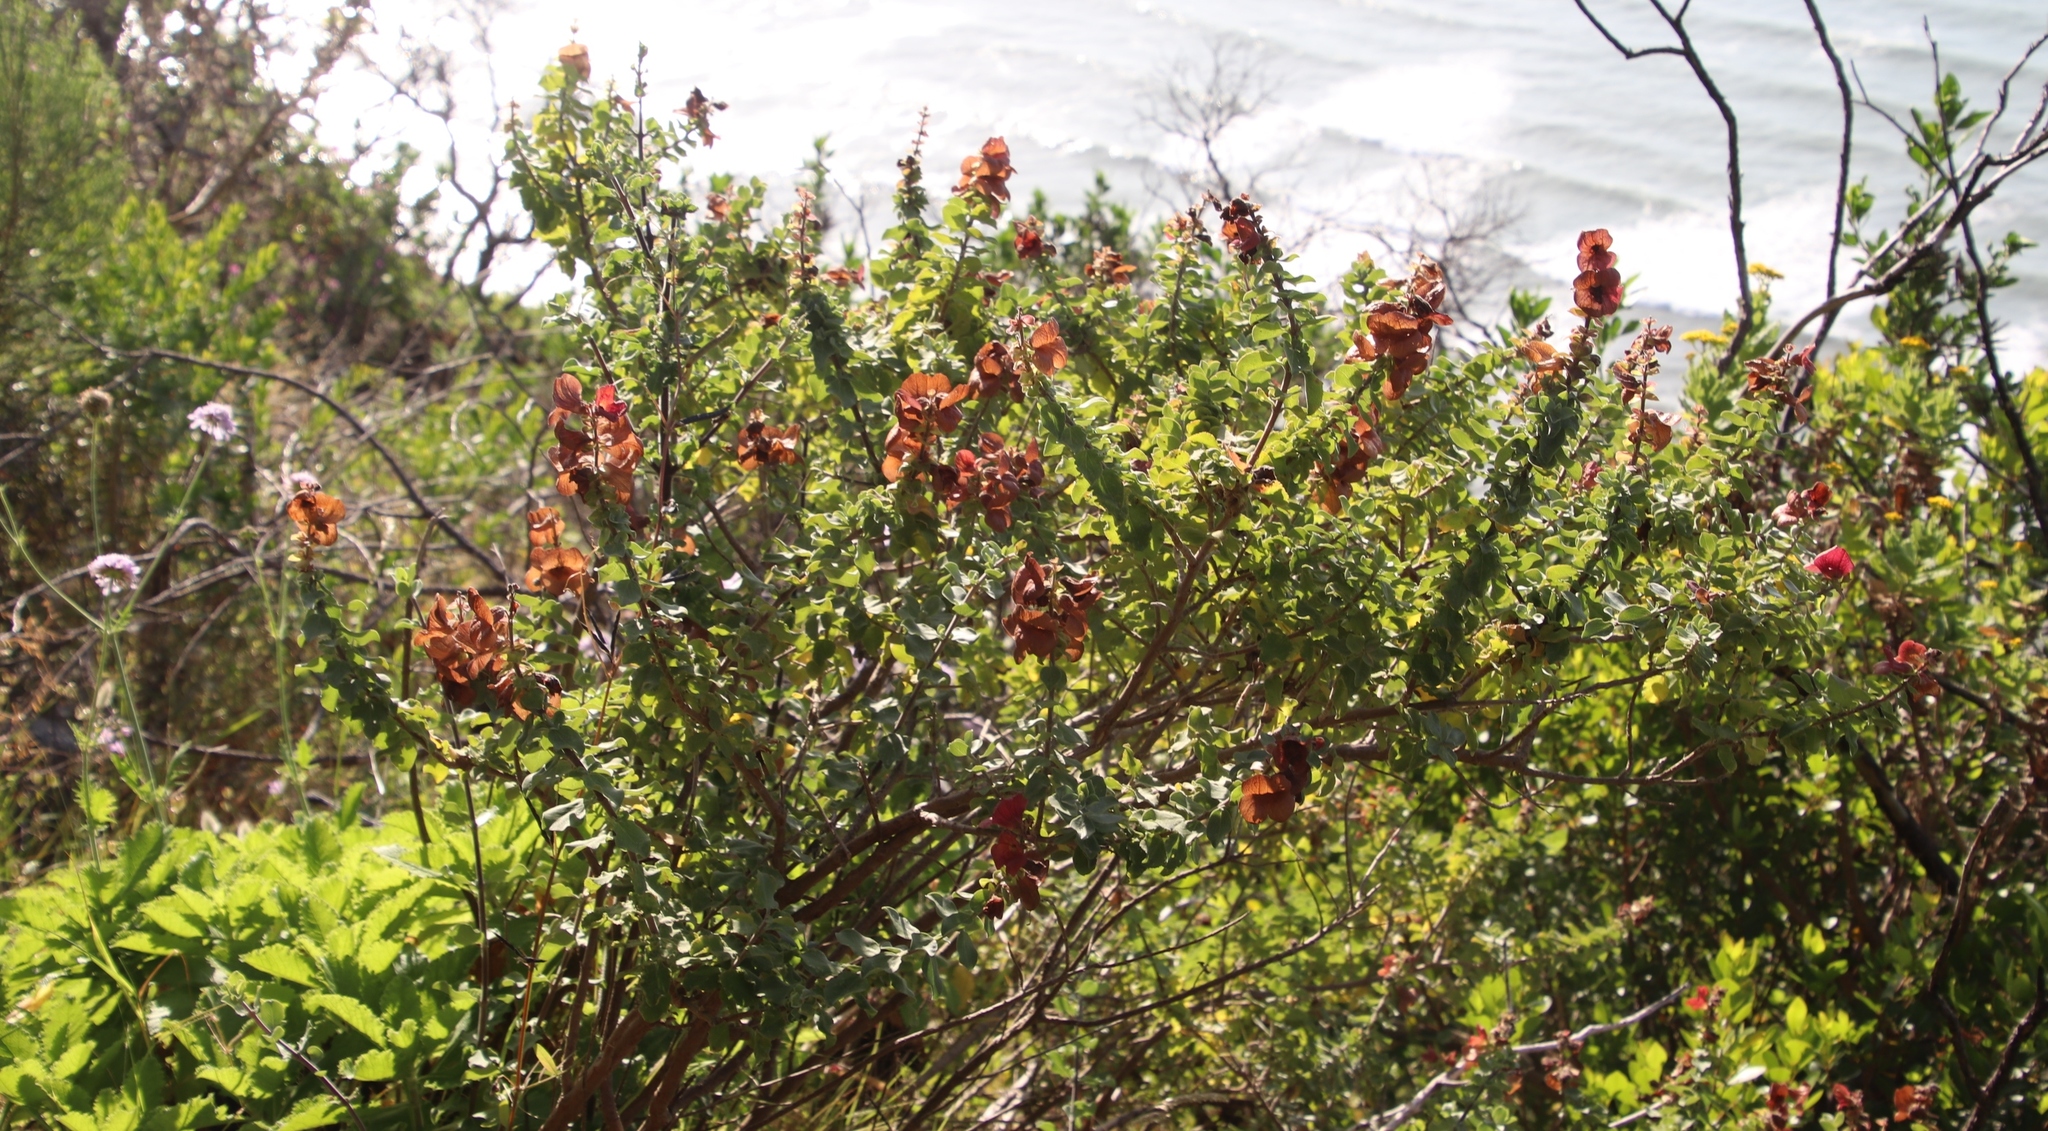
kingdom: Plantae
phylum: Tracheophyta
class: Magnoliopsida
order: Lamiales
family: Lamiaceae
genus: Salvia
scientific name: Salvia aurea
